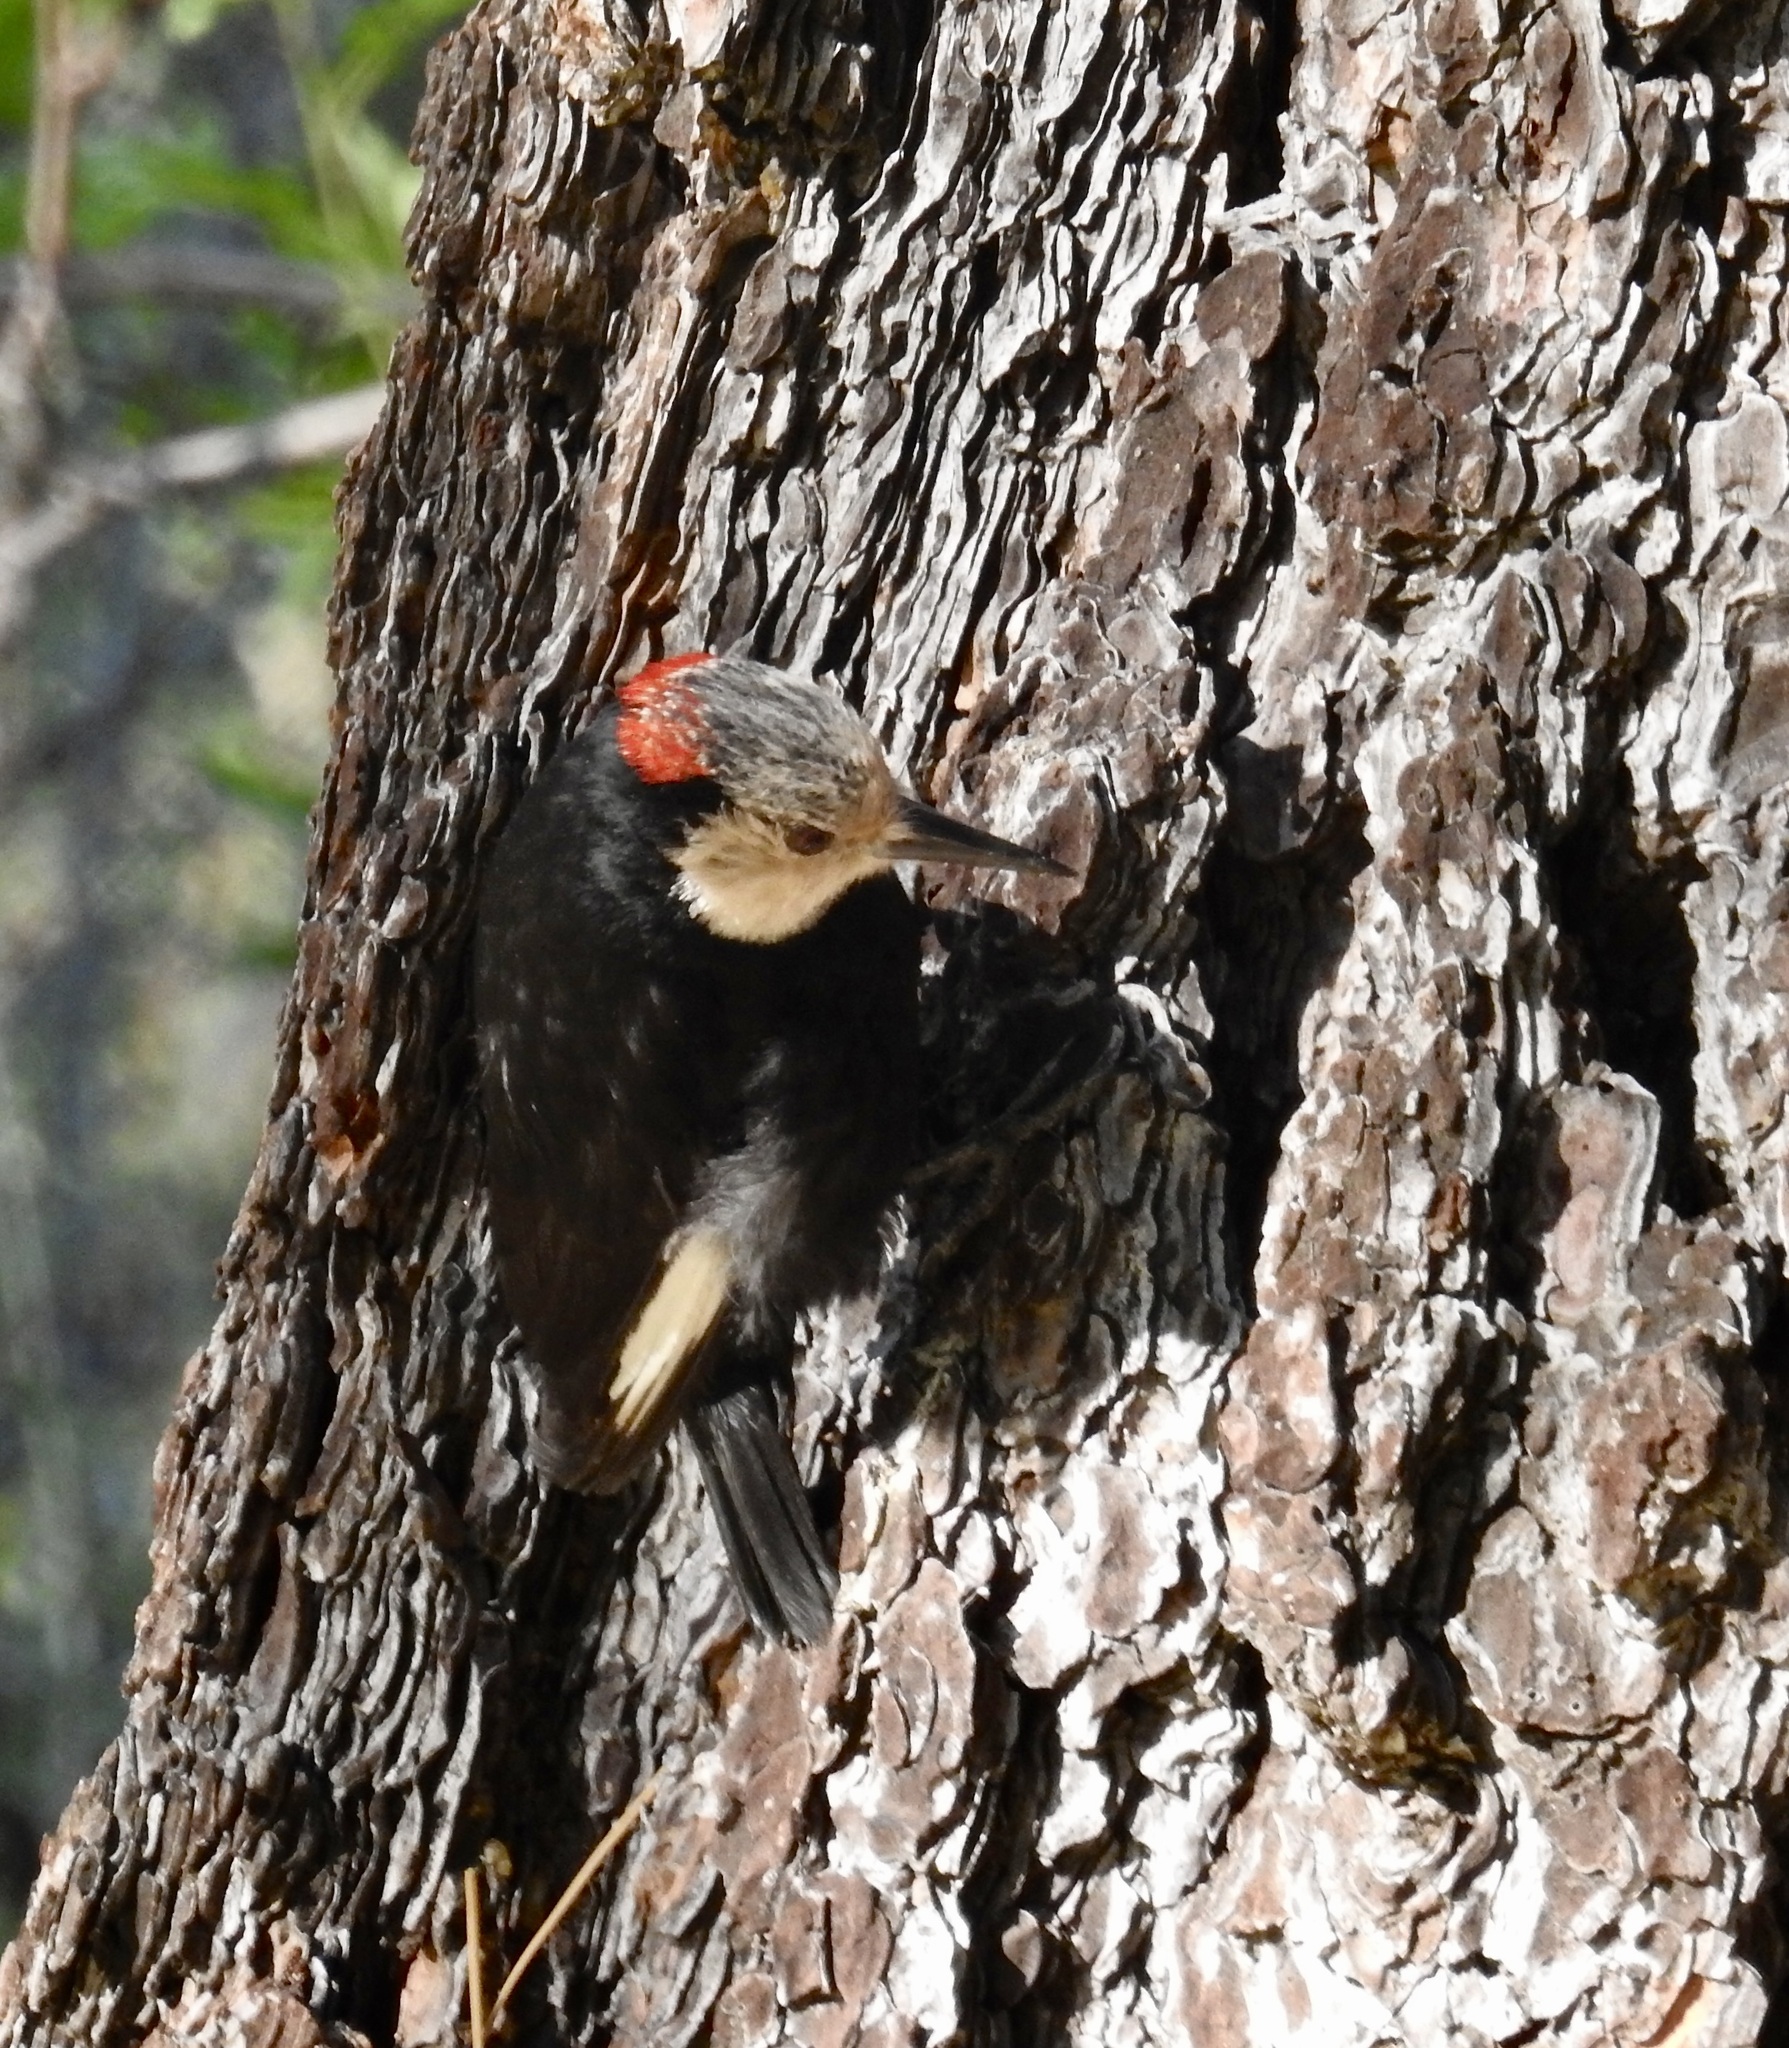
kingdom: Animalia
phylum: Chordata
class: Aves
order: Piciformes
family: Picidae
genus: Leuconotopicus
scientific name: Leuconotopicus albolarvatus
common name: White-headed woodpecker
